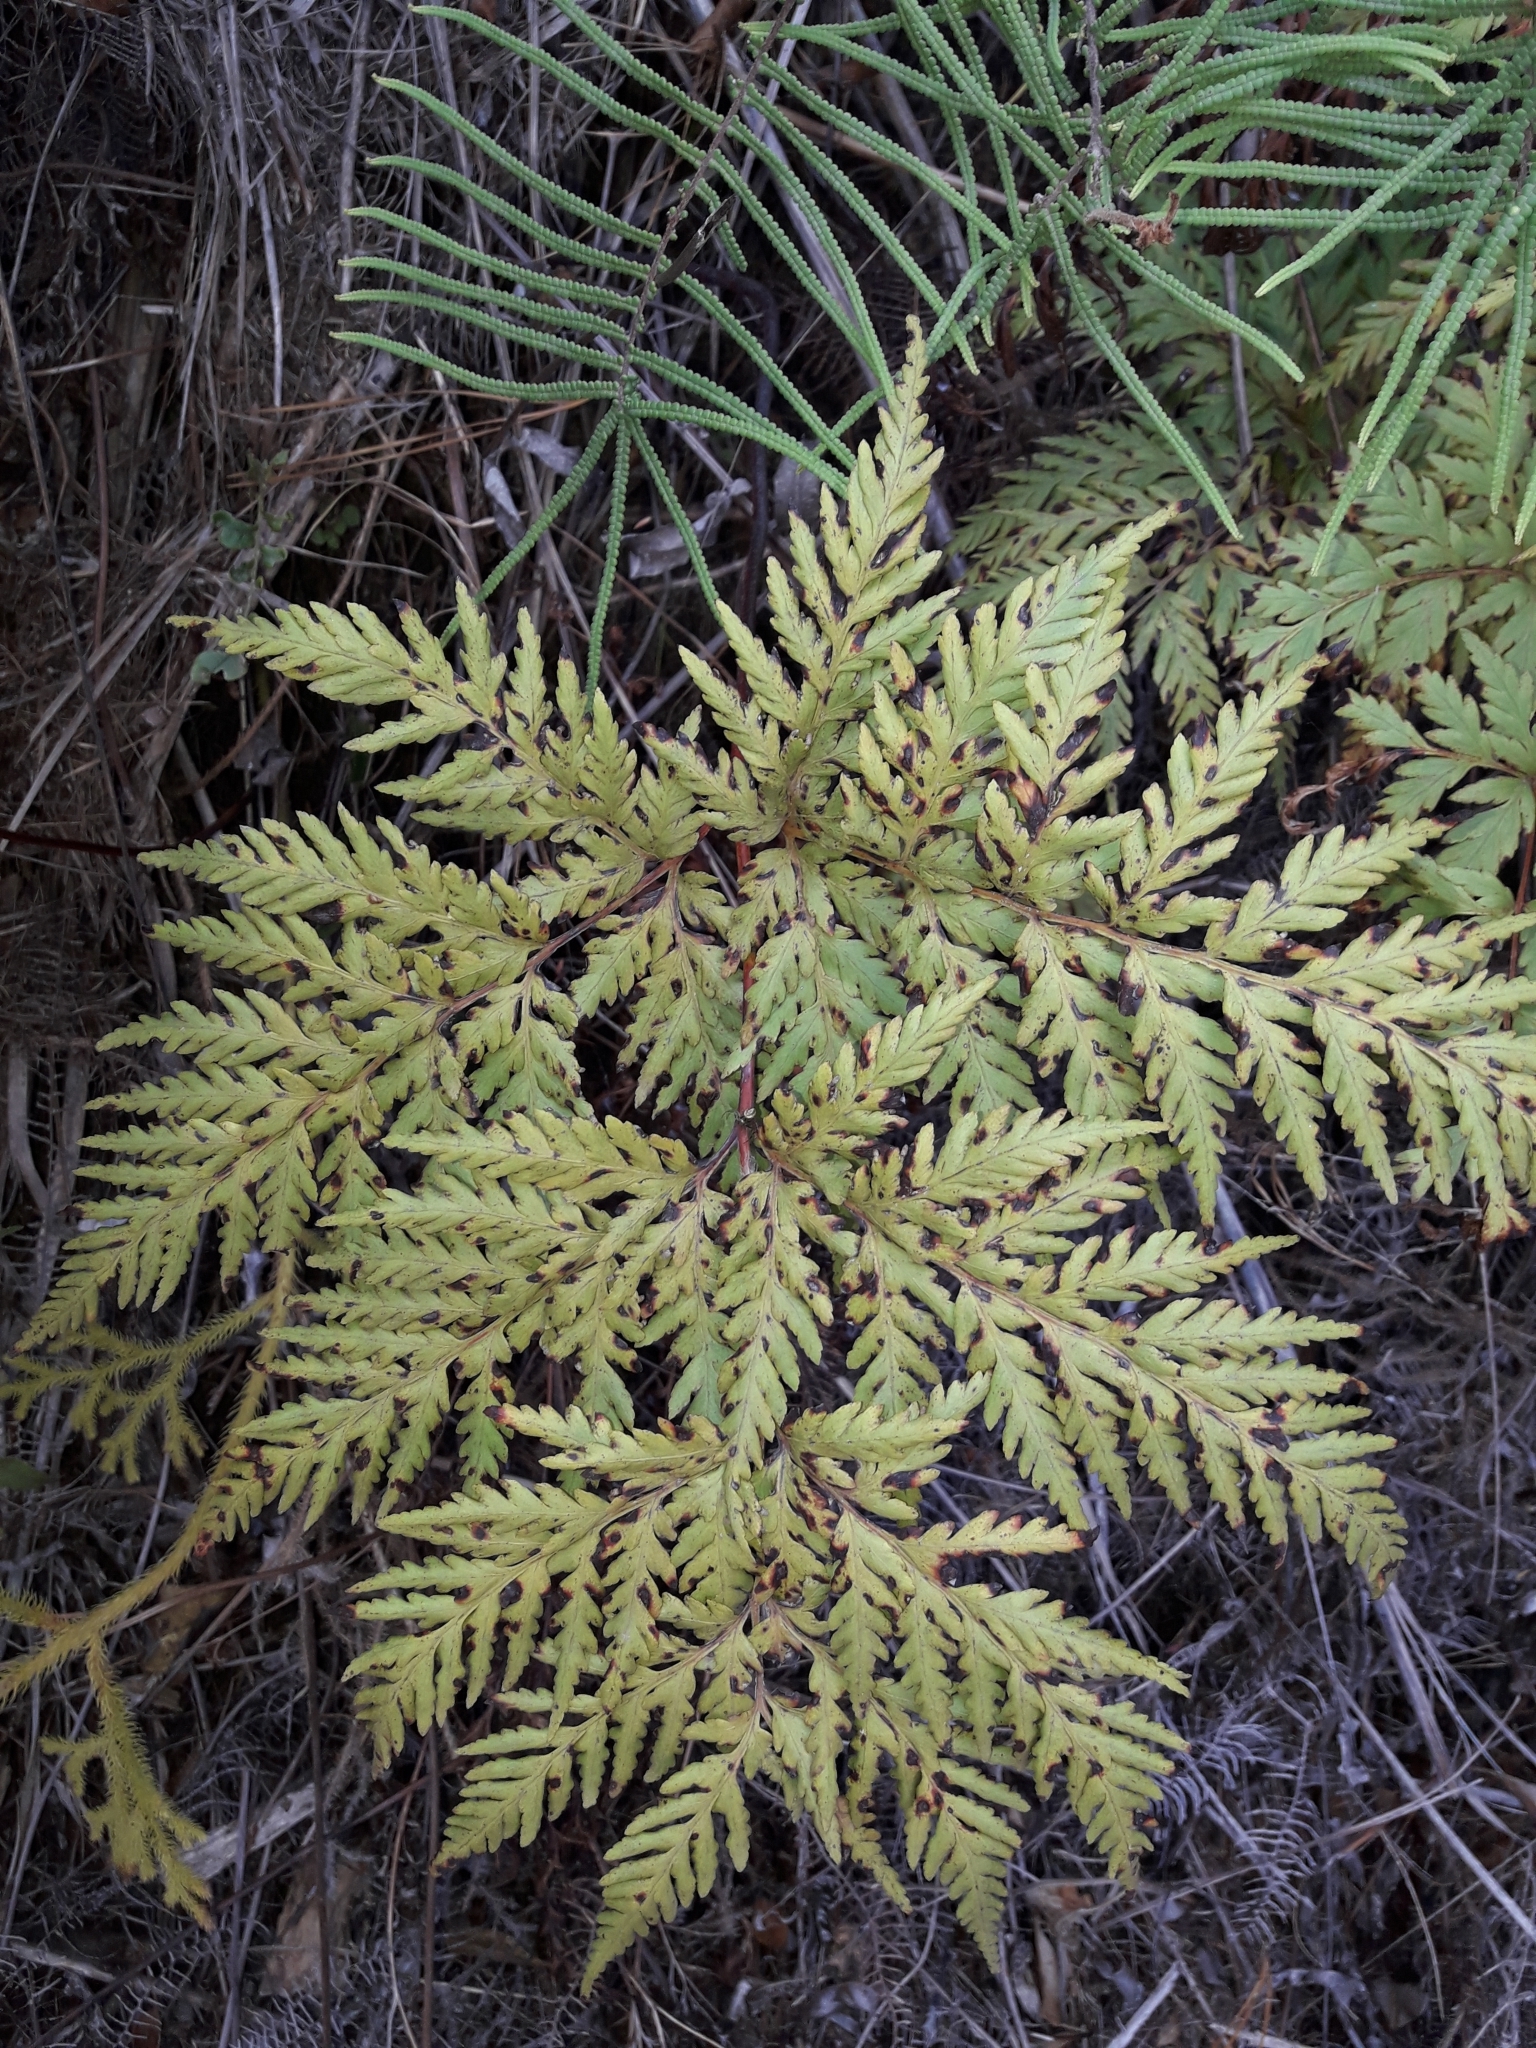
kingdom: Plantae
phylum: Tracheophyta
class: Polypodiopsida
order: Cyatheales
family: Loxsomataceae
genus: Loxsoma
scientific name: Loxsoma cunninghamii
